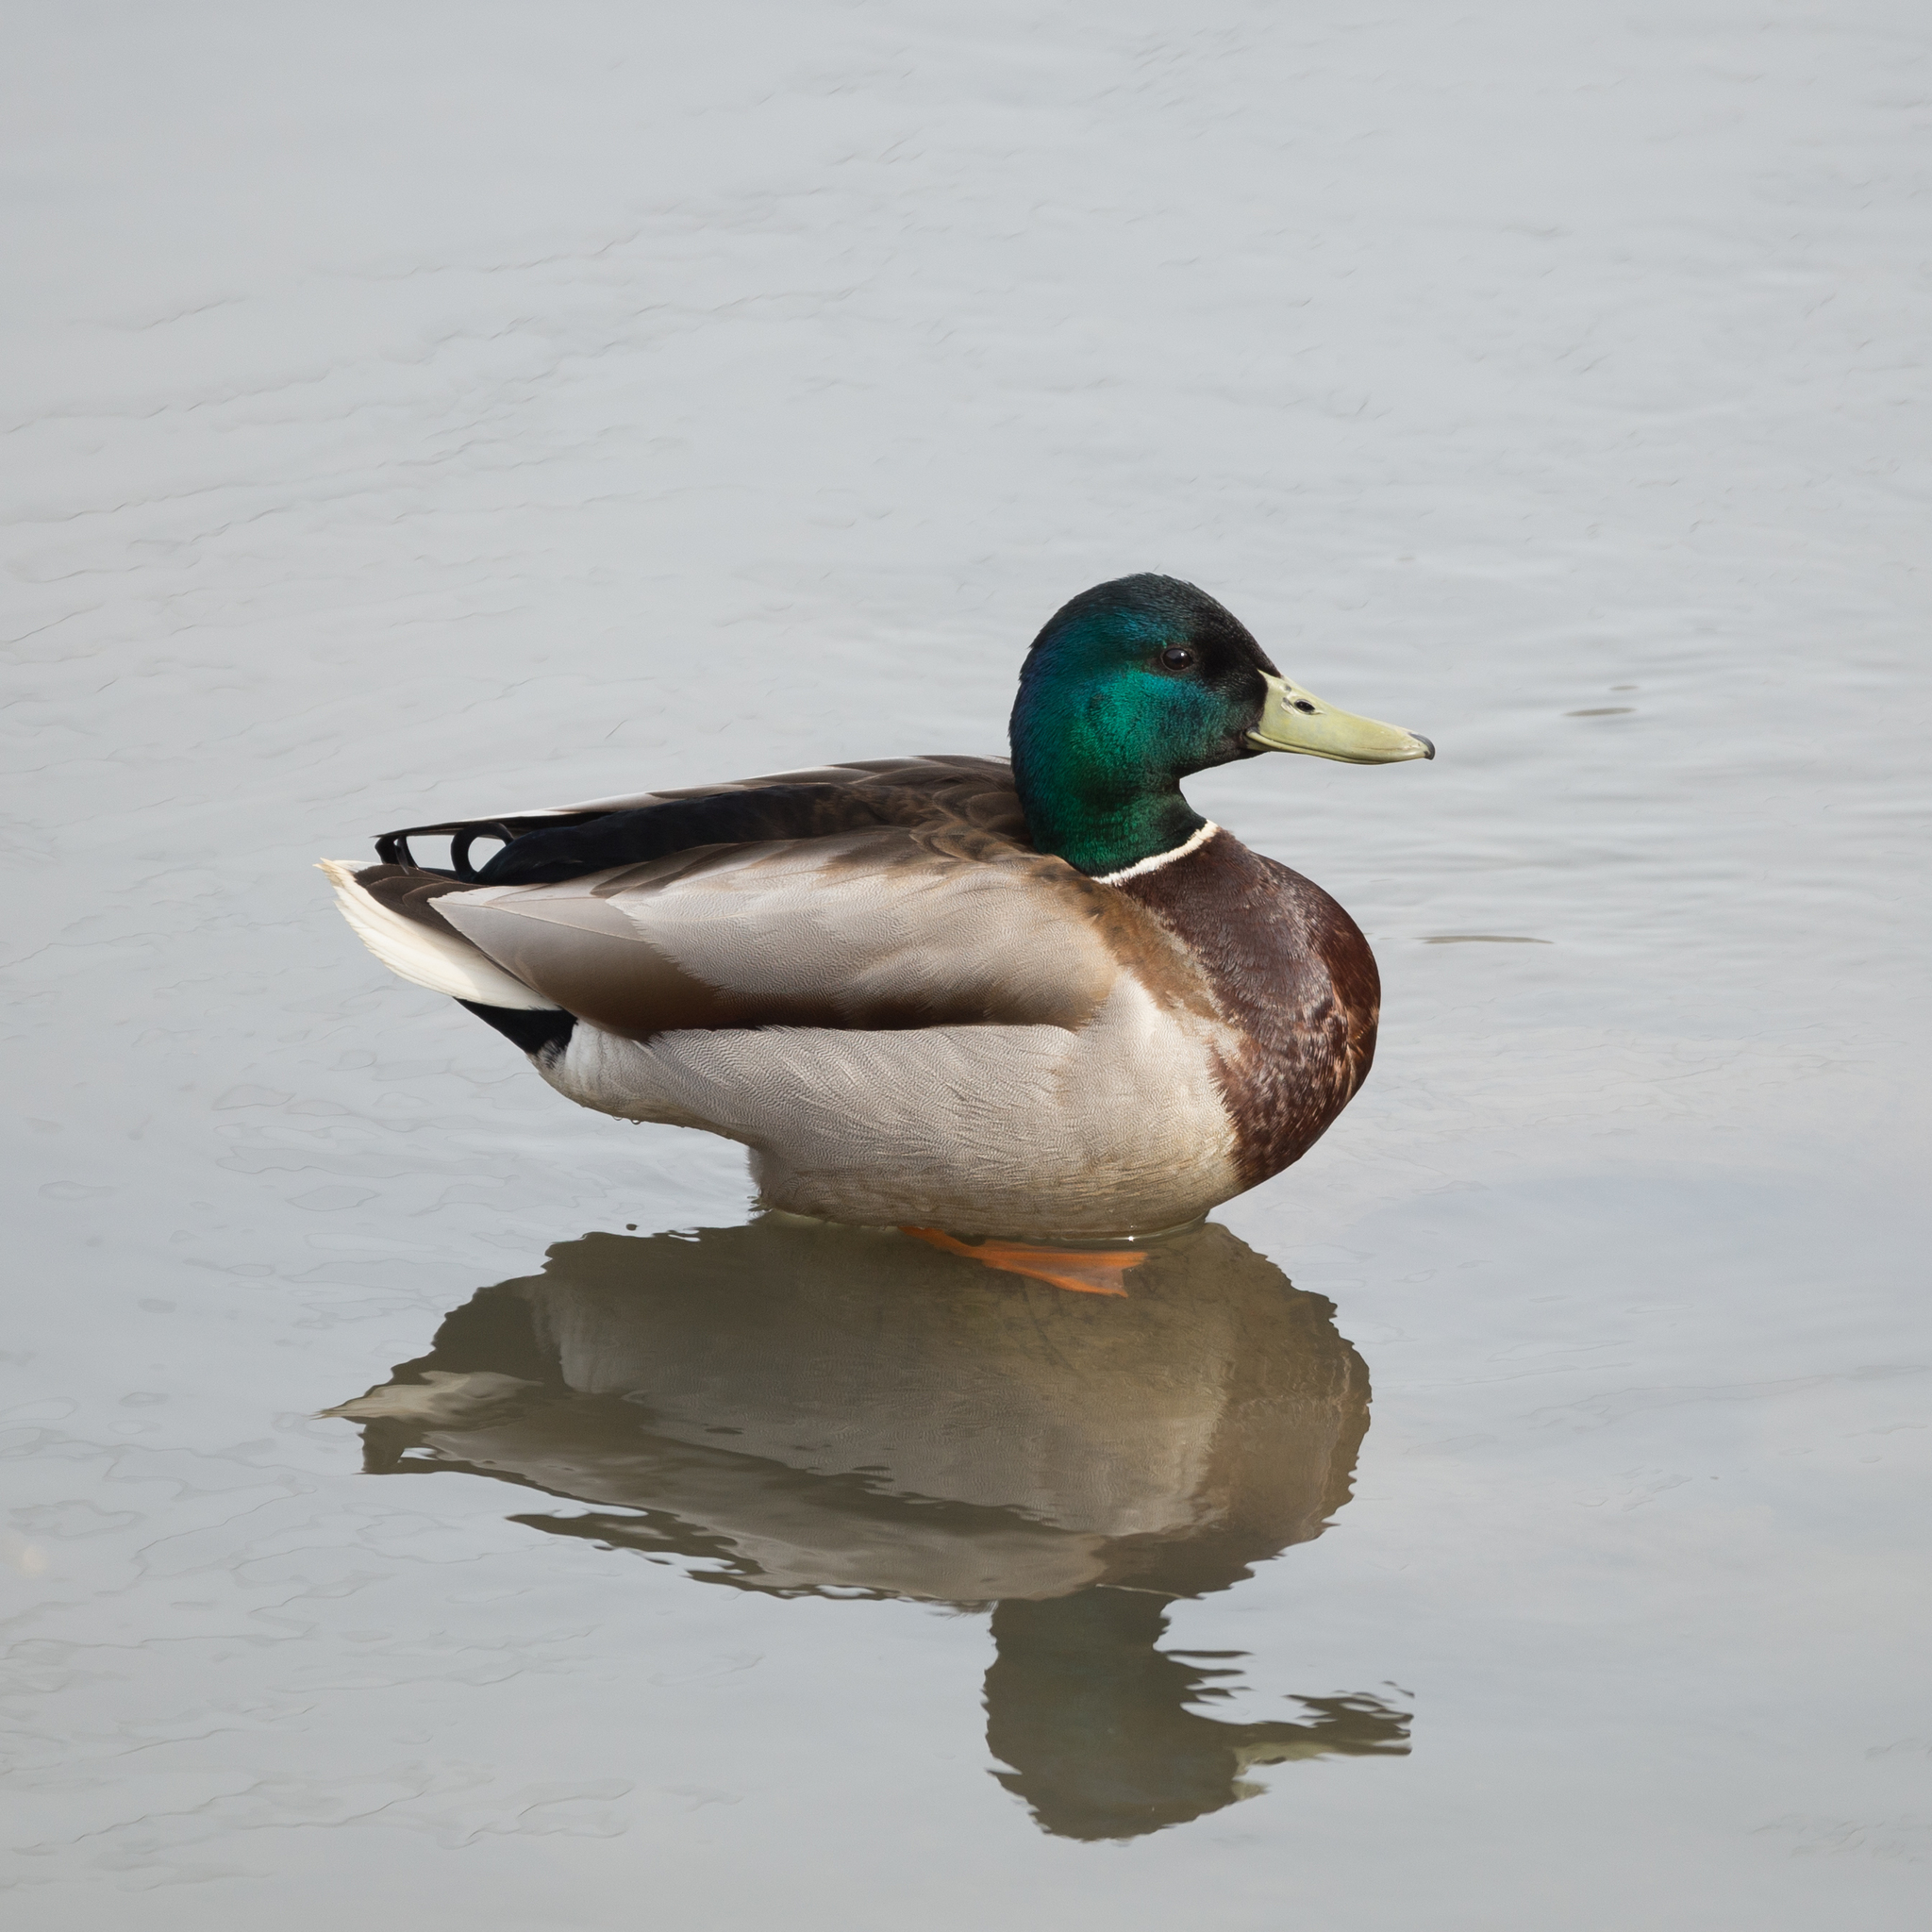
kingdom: Animalia
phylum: Chordata
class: Aves
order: Anseriformes
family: Anatidae
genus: Anas
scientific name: Anas platyrhynchos
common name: Mallard
